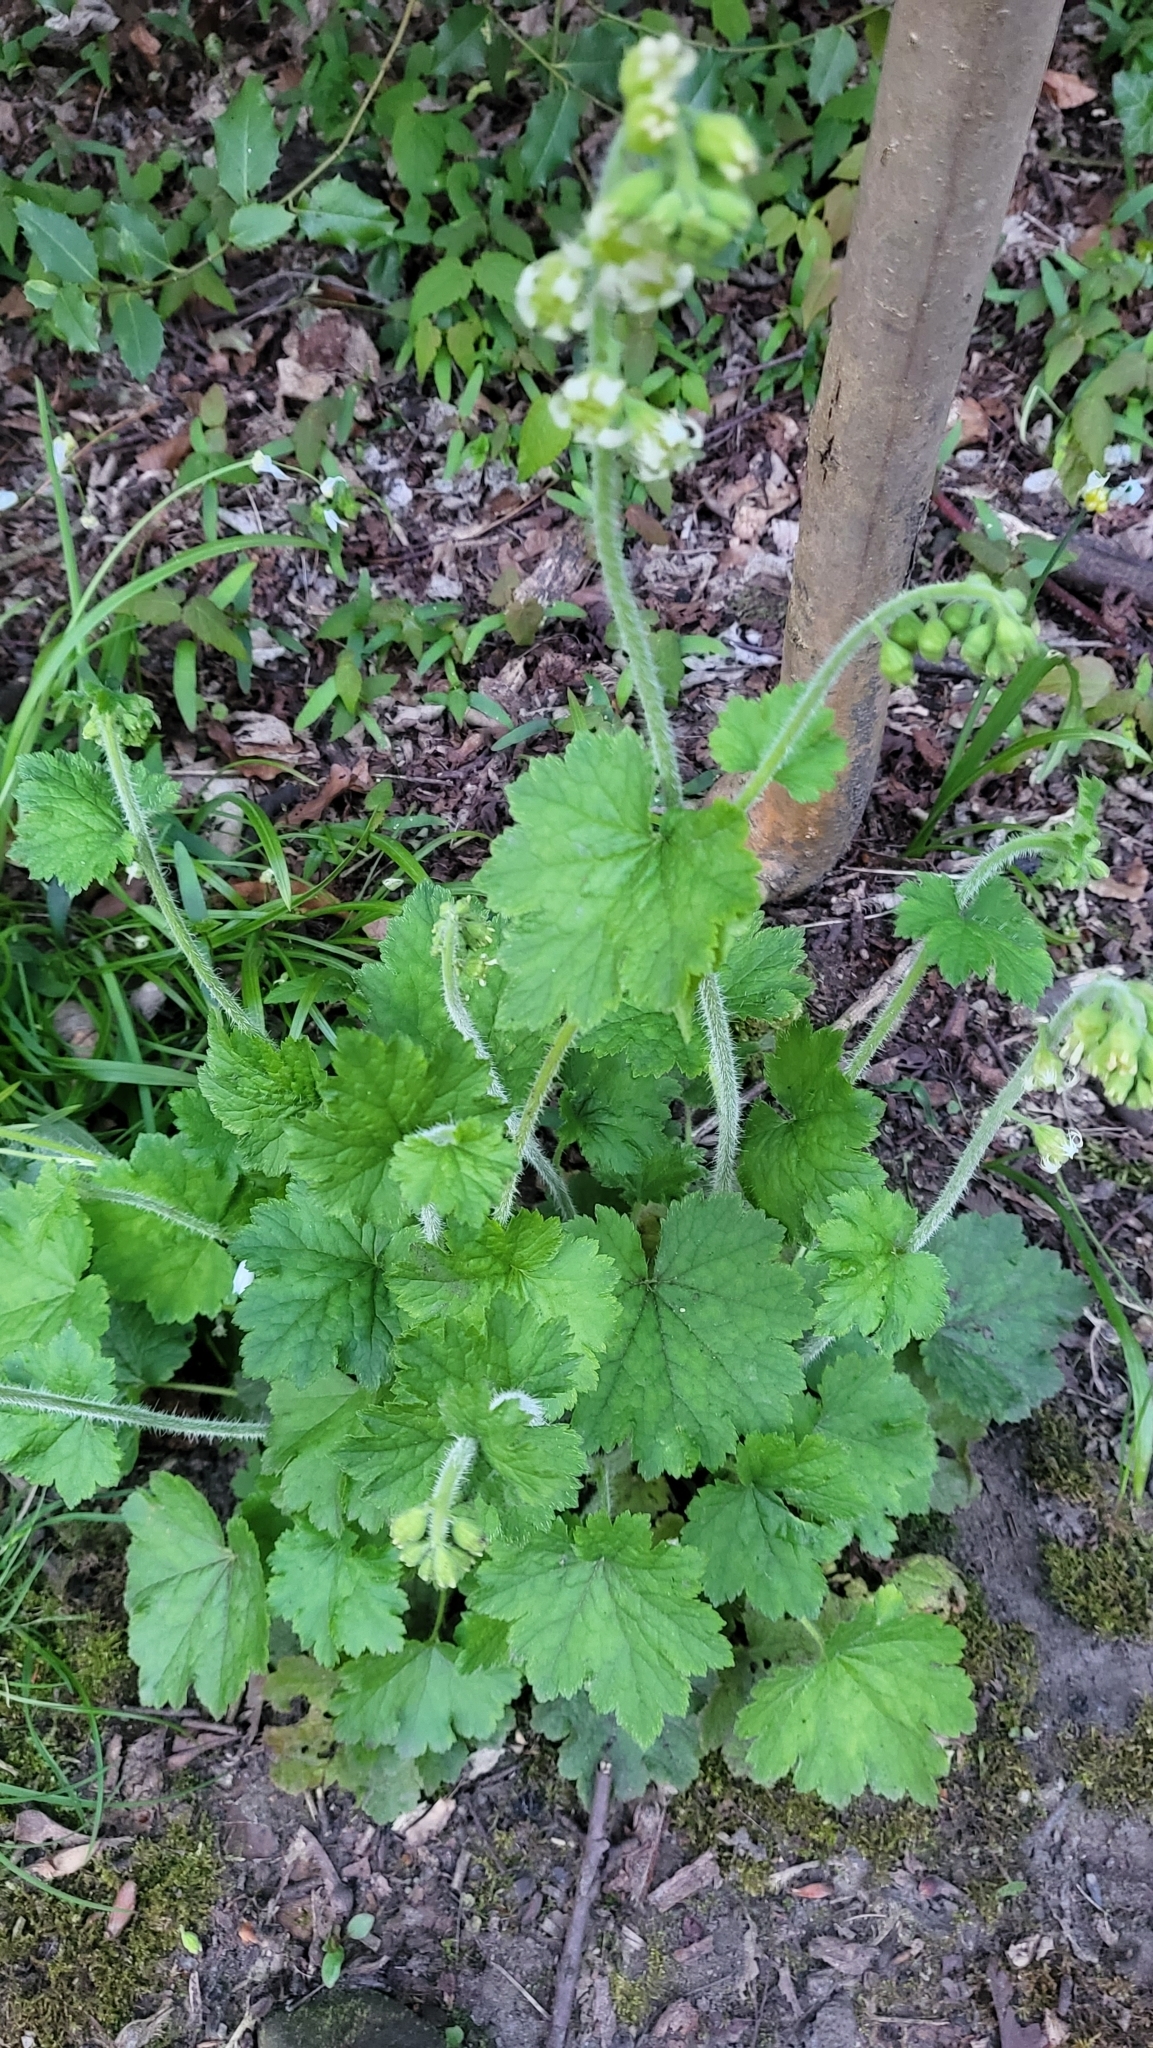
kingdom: Plantae
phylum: Tracheophyta
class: Magnoliopsida
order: Saxifragales
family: Saxifragaceae
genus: Tellima
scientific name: Tellima grandiflora
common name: Fringecups
